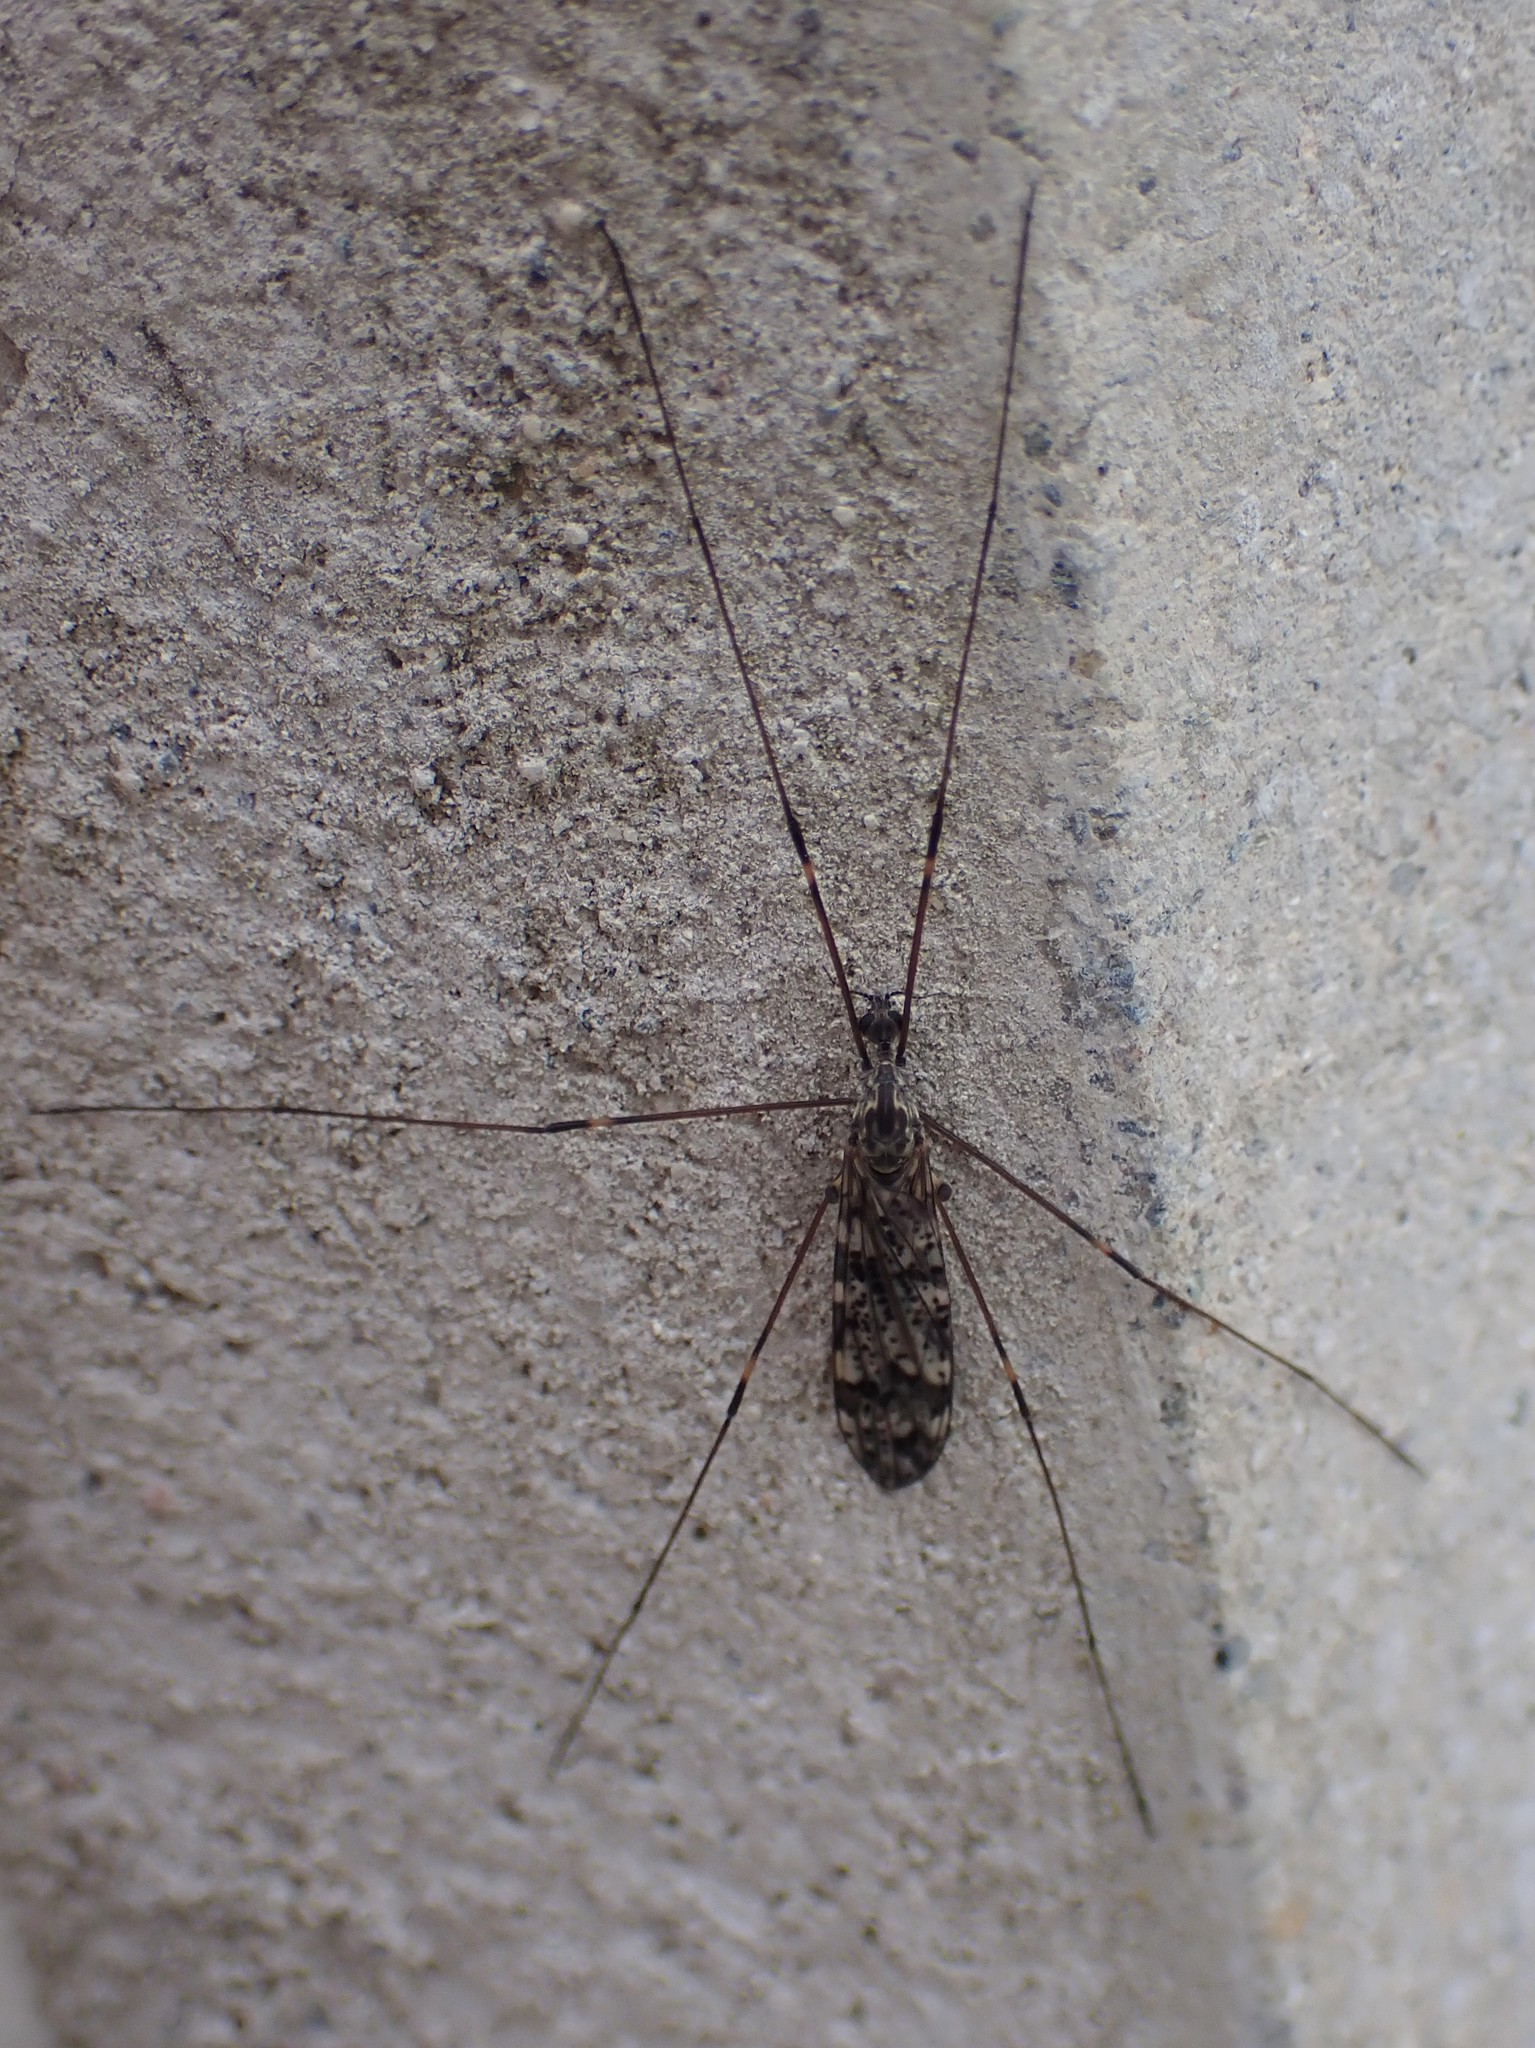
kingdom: Animalia
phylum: Arthropoda
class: Insecta
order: Diptera
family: Limoniidae
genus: Dicranomyia
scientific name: Dicranomyia simulans
